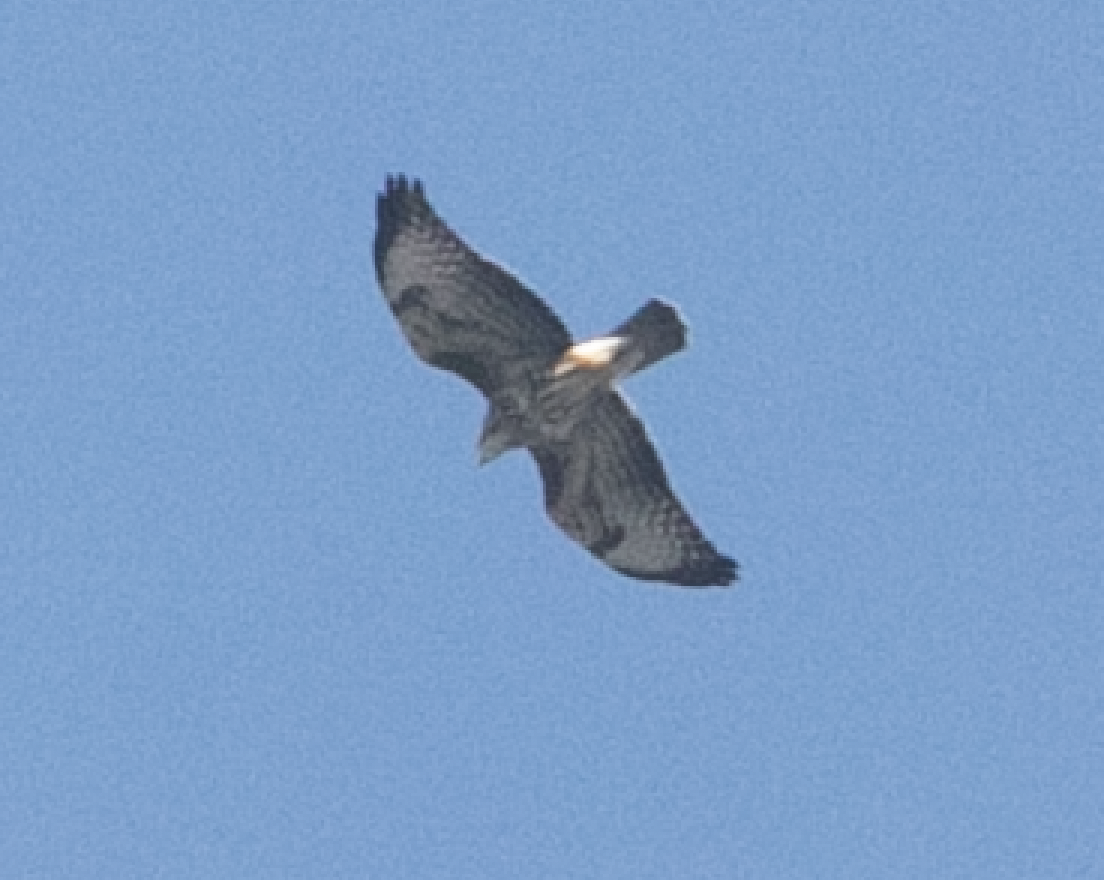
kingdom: Animalia
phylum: Chordata
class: Aves
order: Accipitriformes
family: Accipitridae
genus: Buteo
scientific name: Buteo buteo
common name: Common buzzard
